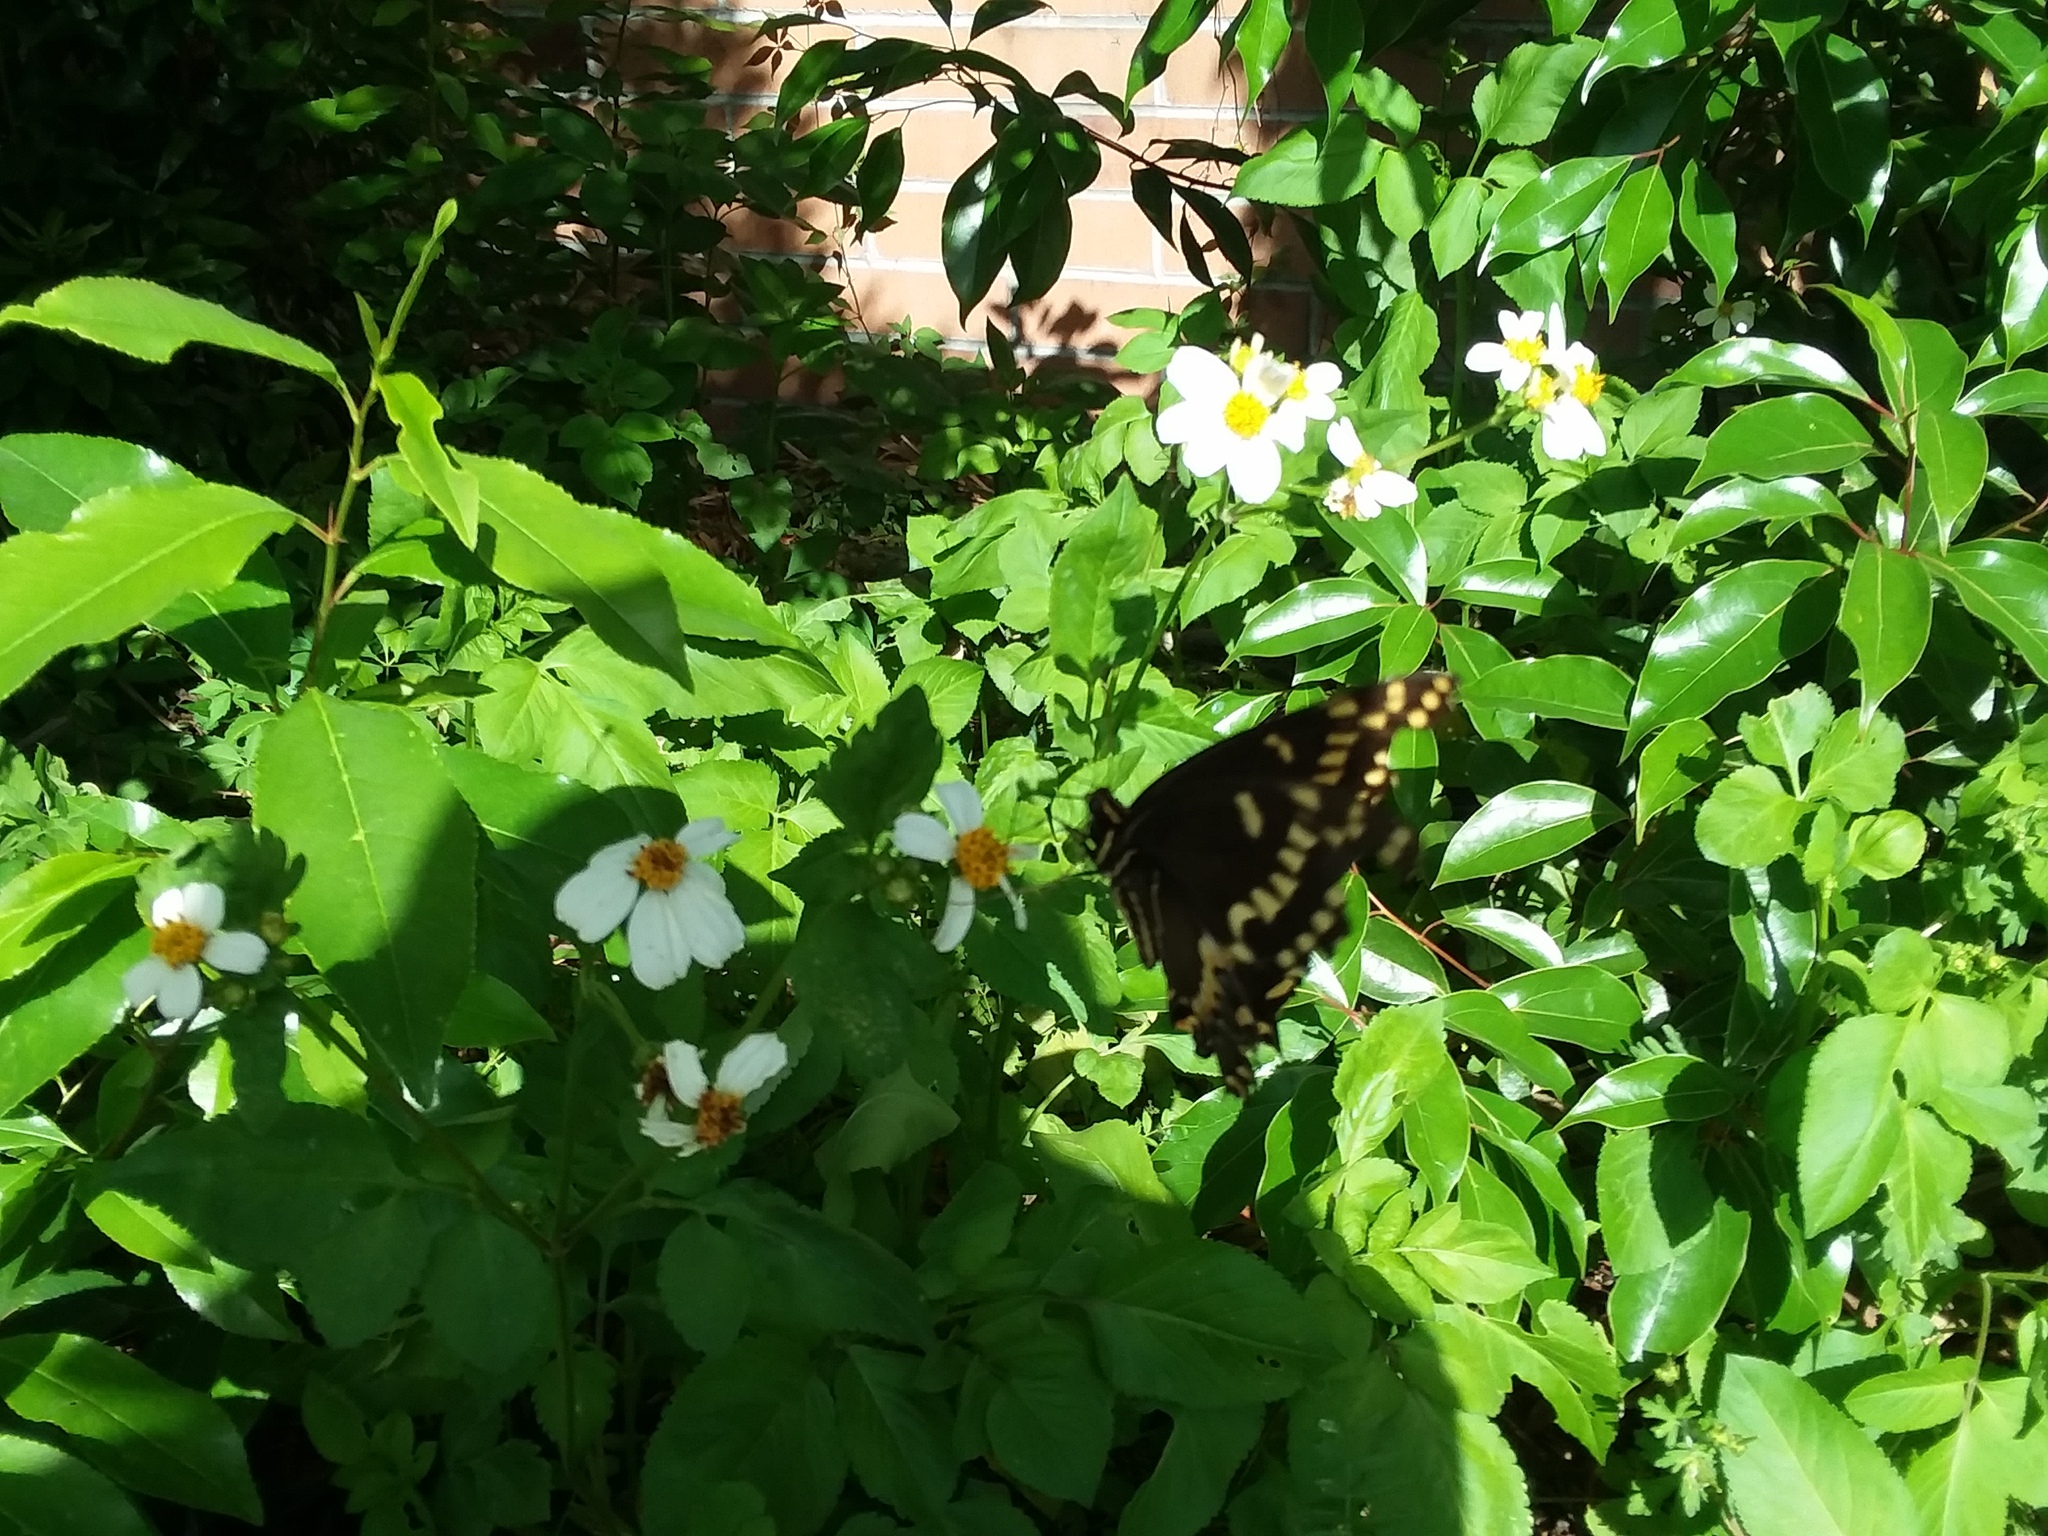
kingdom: Animalia
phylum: Arthropoda
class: Insecta
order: Lepidoptera
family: Papilionidae
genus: Papilio
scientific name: Papilio palamedes
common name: Palamedes swallowtail
